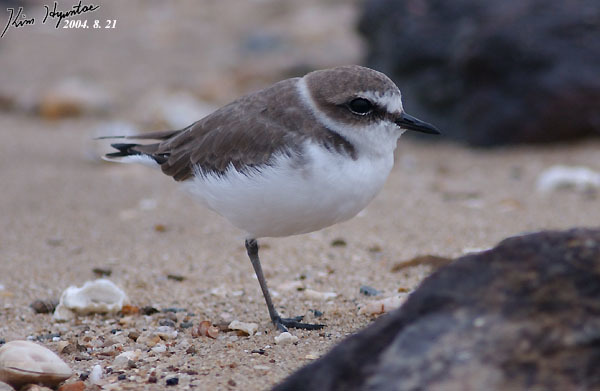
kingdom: Animalia
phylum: Chordata
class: Aves
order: Charadriiformes
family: Charadriidae
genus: Charadrius
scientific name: Charadrius alexandrinus
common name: Kentish plover
